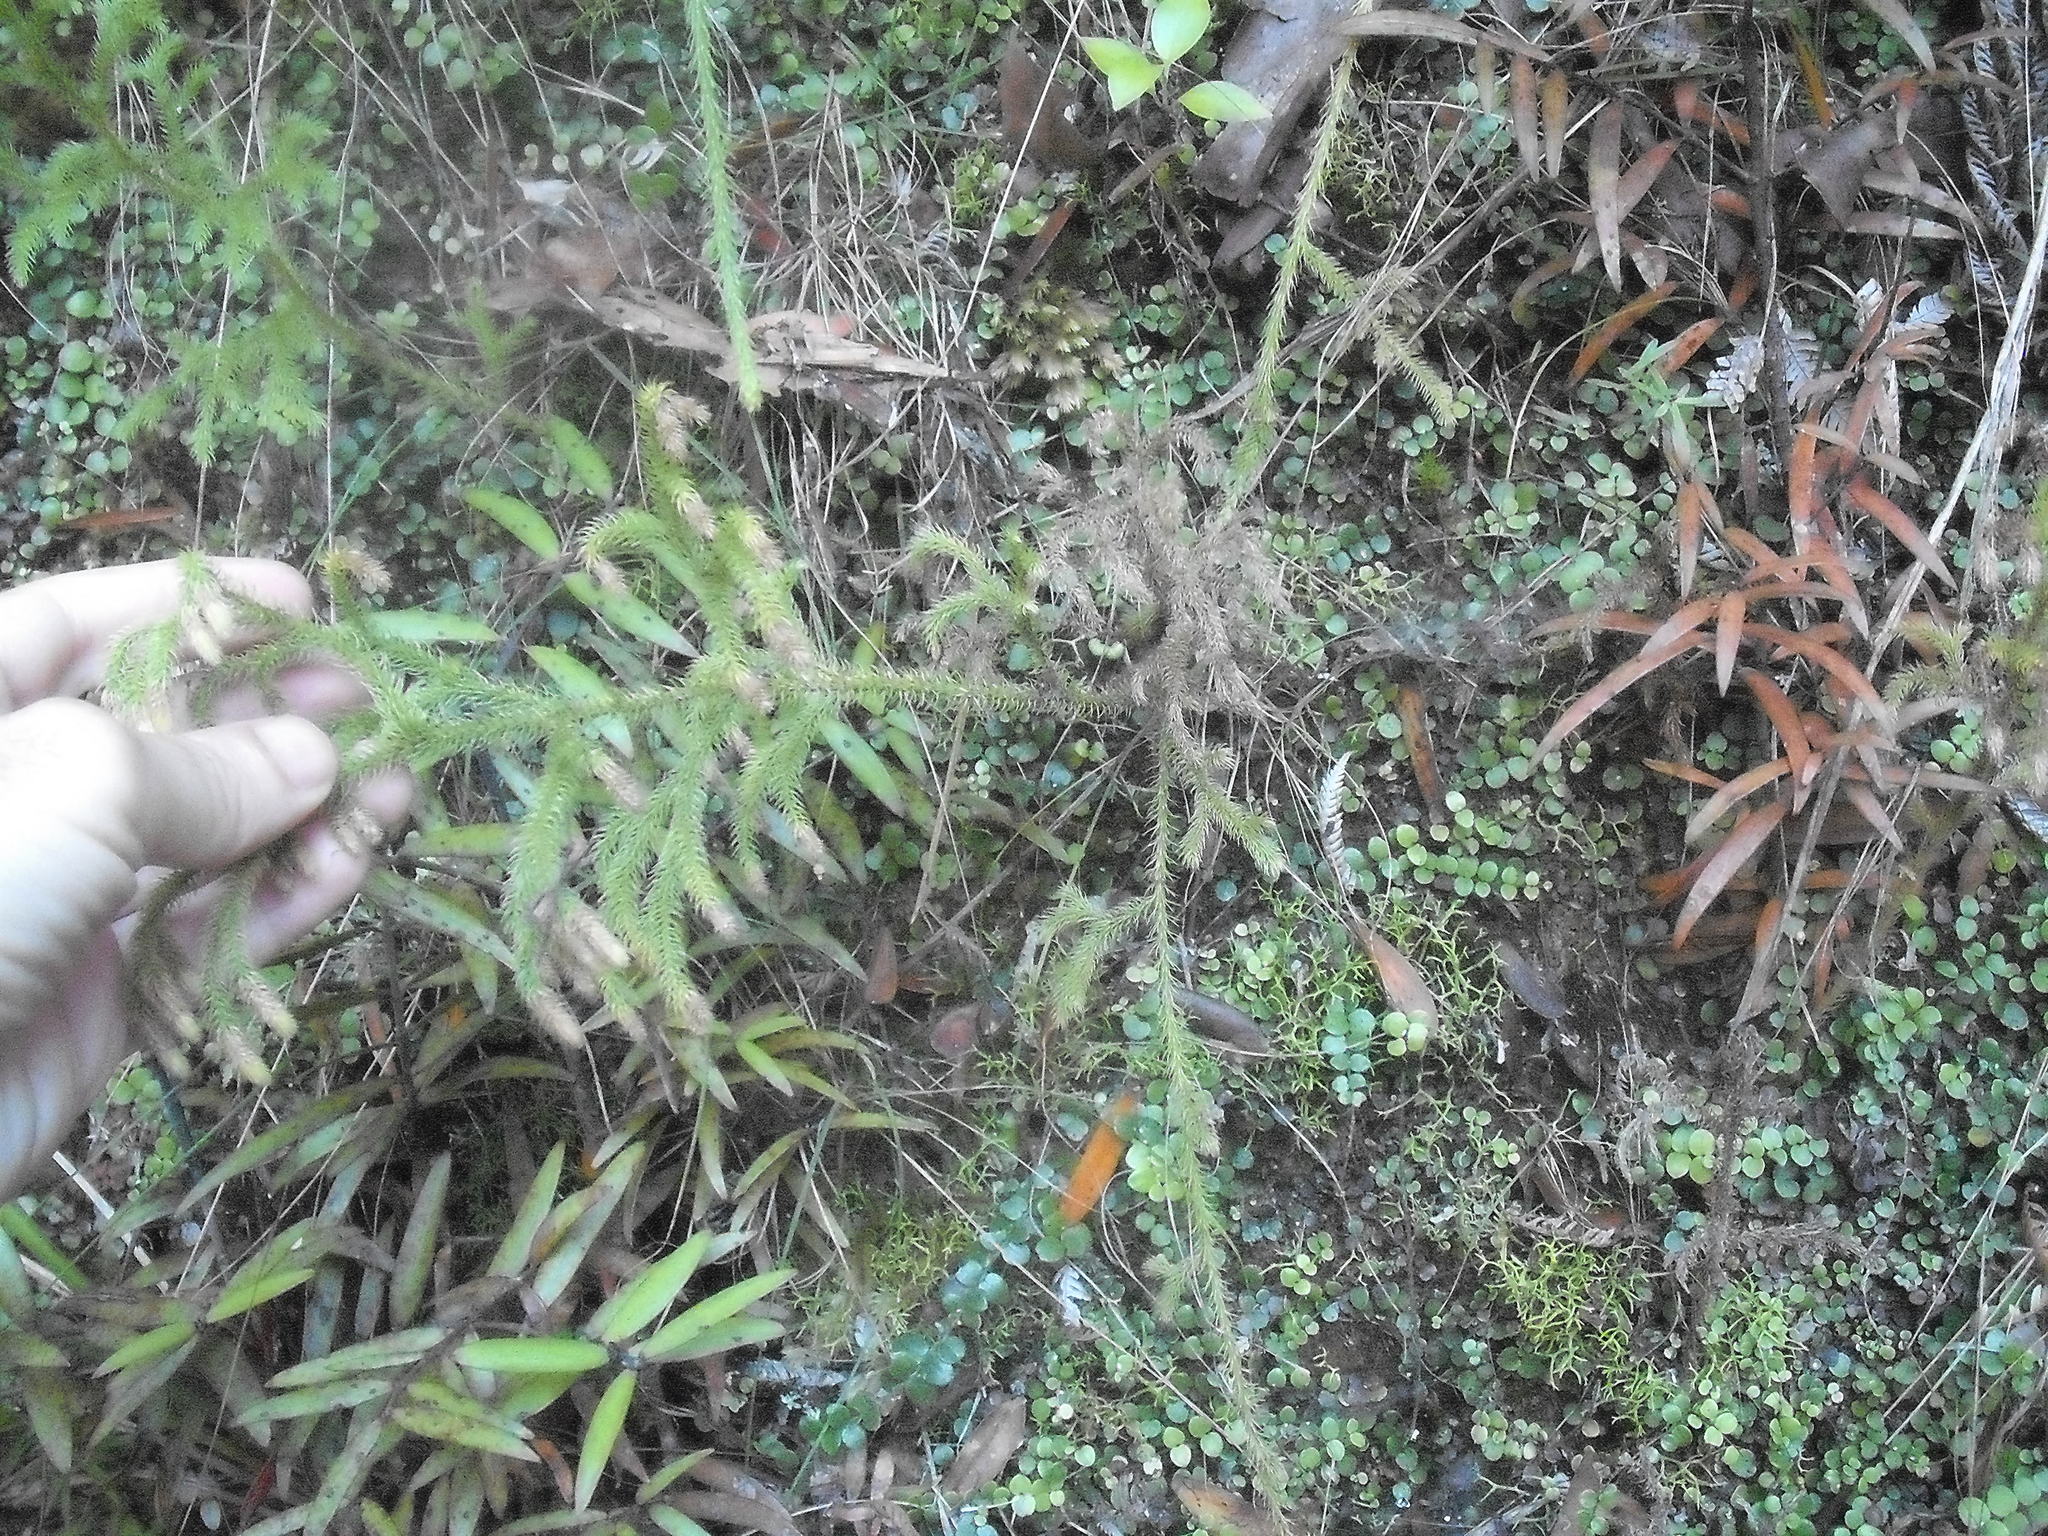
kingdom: Plantae
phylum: Tracheophyta
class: Lycopodiopsida
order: Lycopodiales
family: Lycopodiaceae
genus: Palhinhaea
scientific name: Palhinhaea cernua
